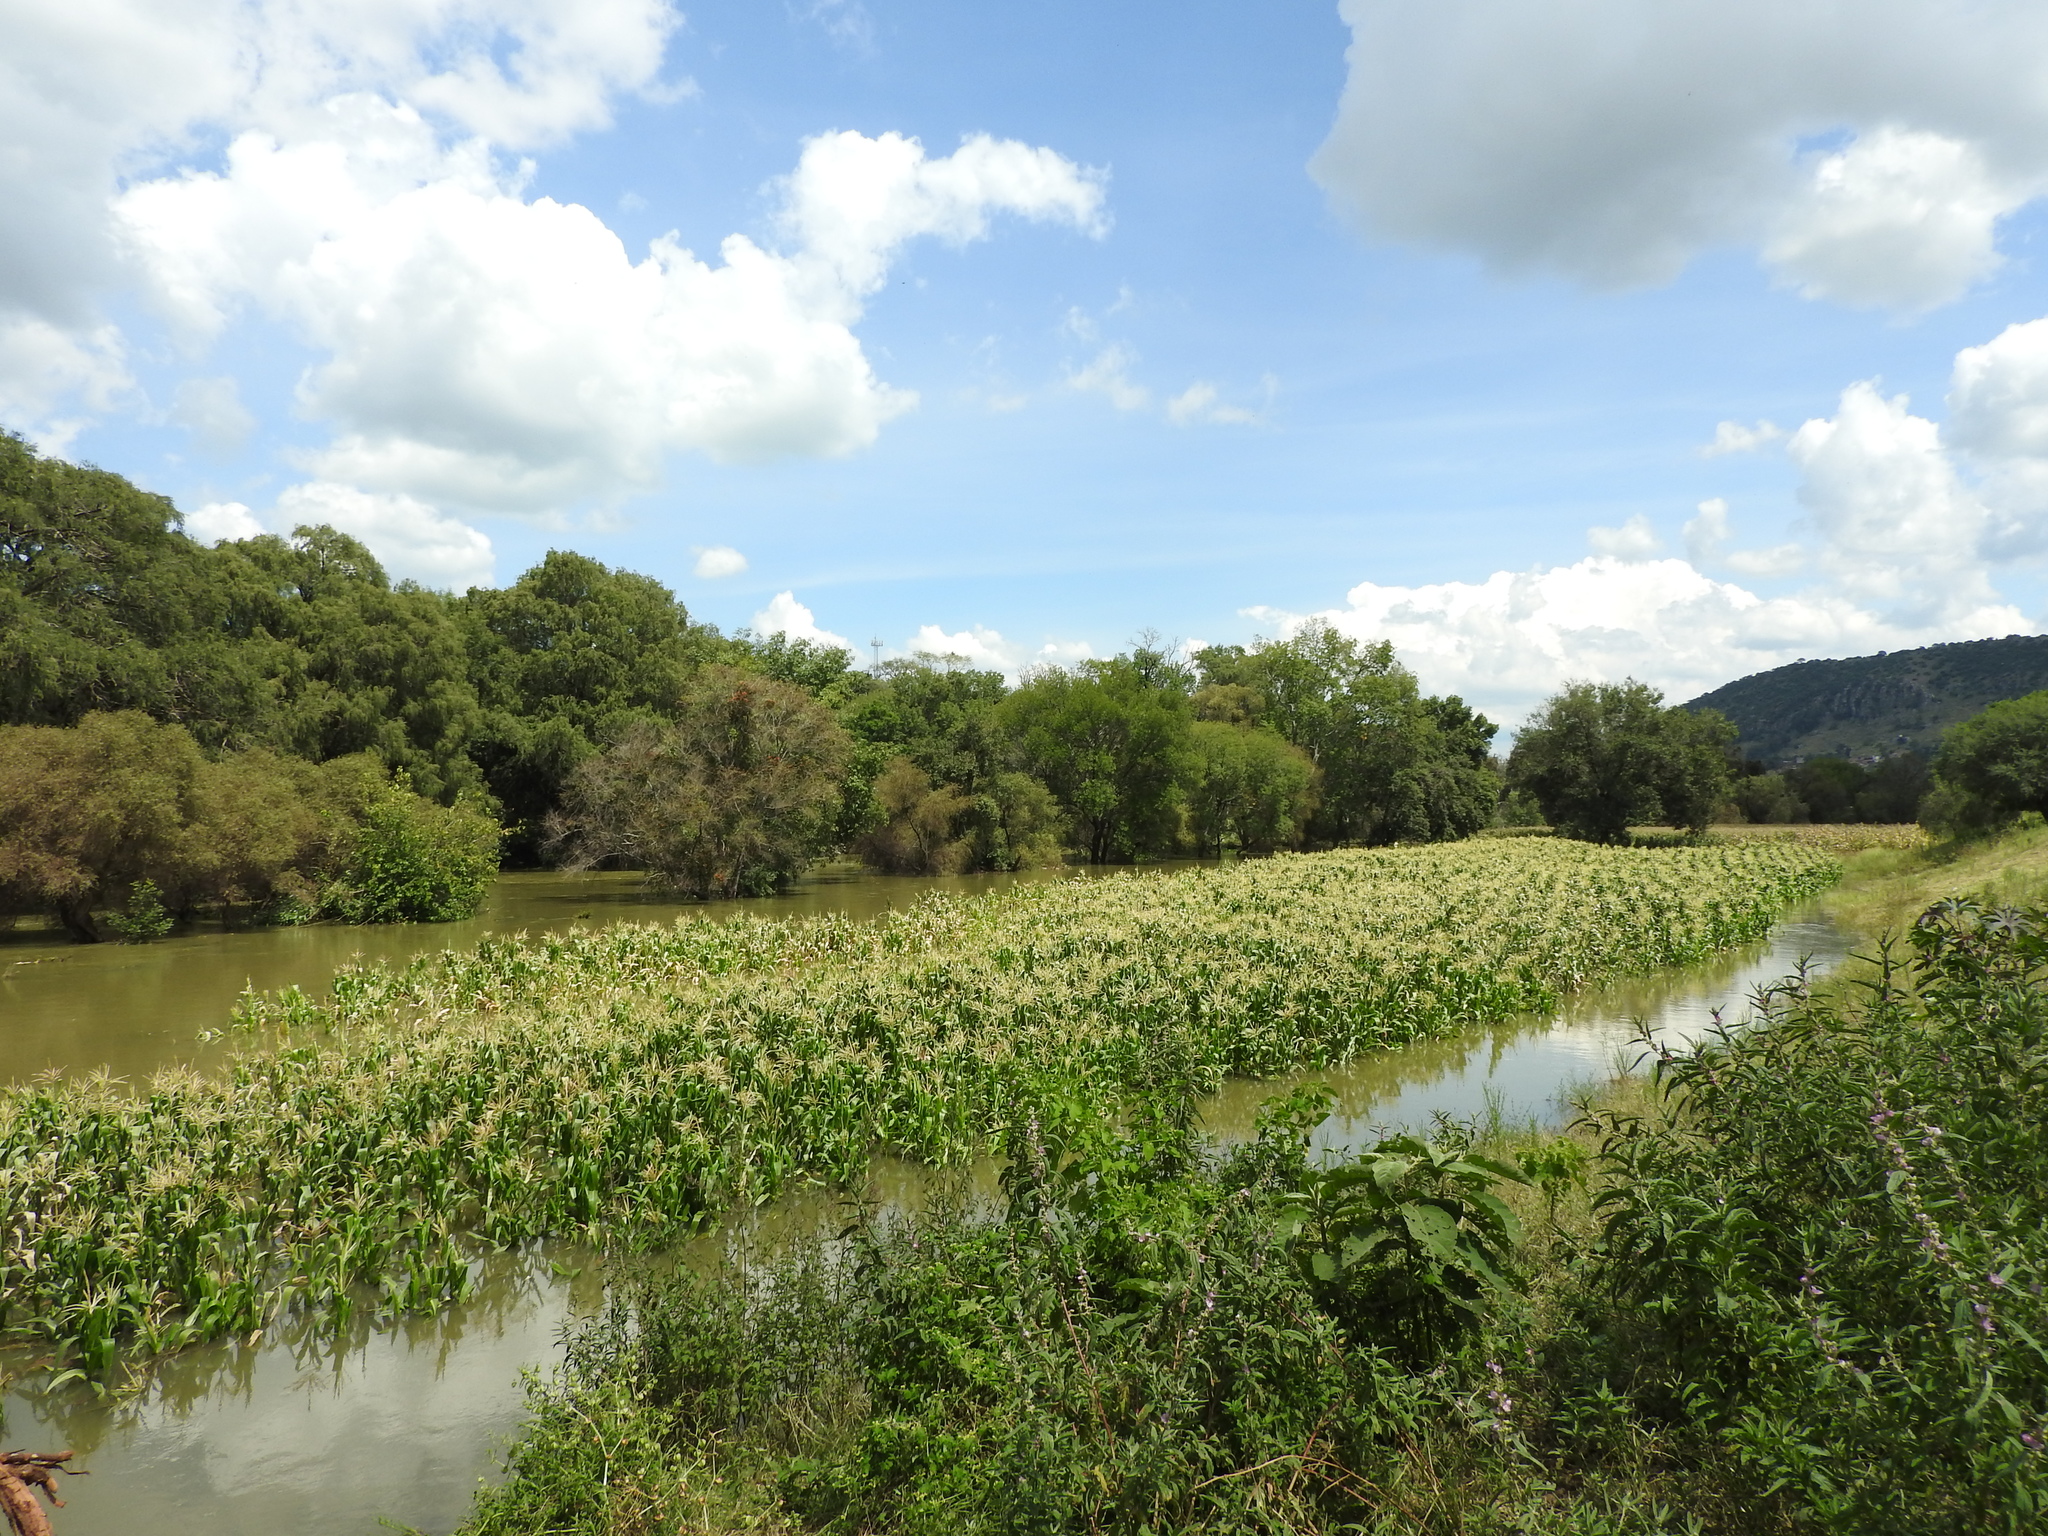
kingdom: Plantae
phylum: Tracheophyta
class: Liliopsida
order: Poales
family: Poaceae
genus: Zea
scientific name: Zea mays
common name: Maize
